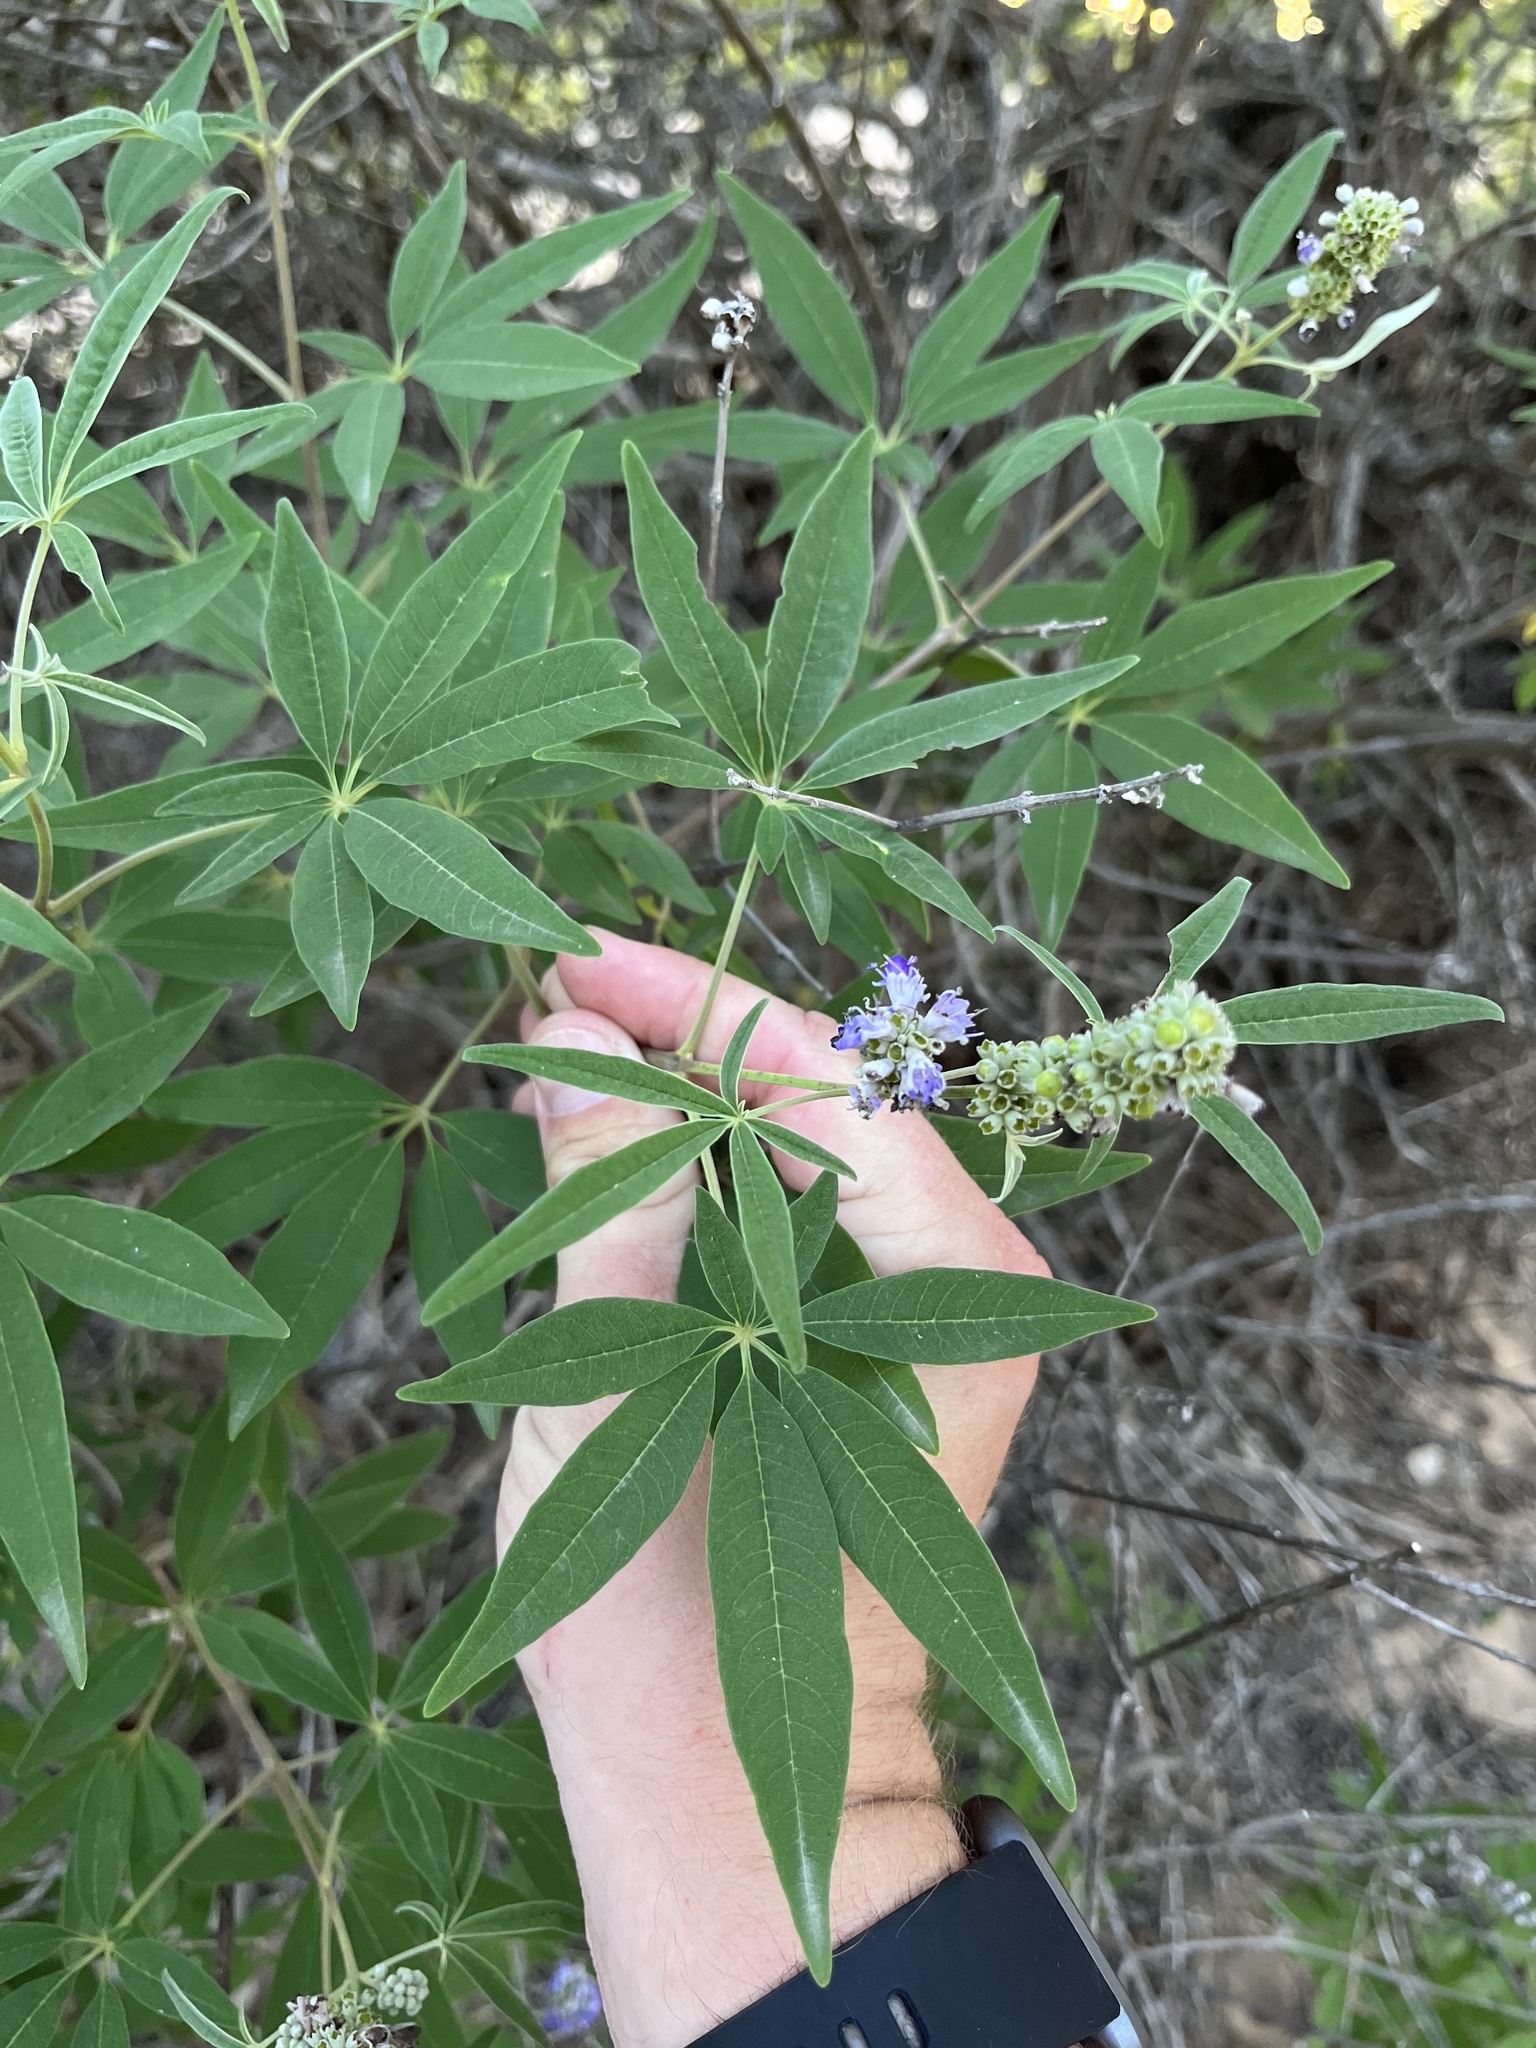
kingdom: Plantae
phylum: Tracheophyta
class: Magnoliopsida
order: Lamiales
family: Lamiaceae
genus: Vitex
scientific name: Vitex agnus-castus
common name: Chasteberry
